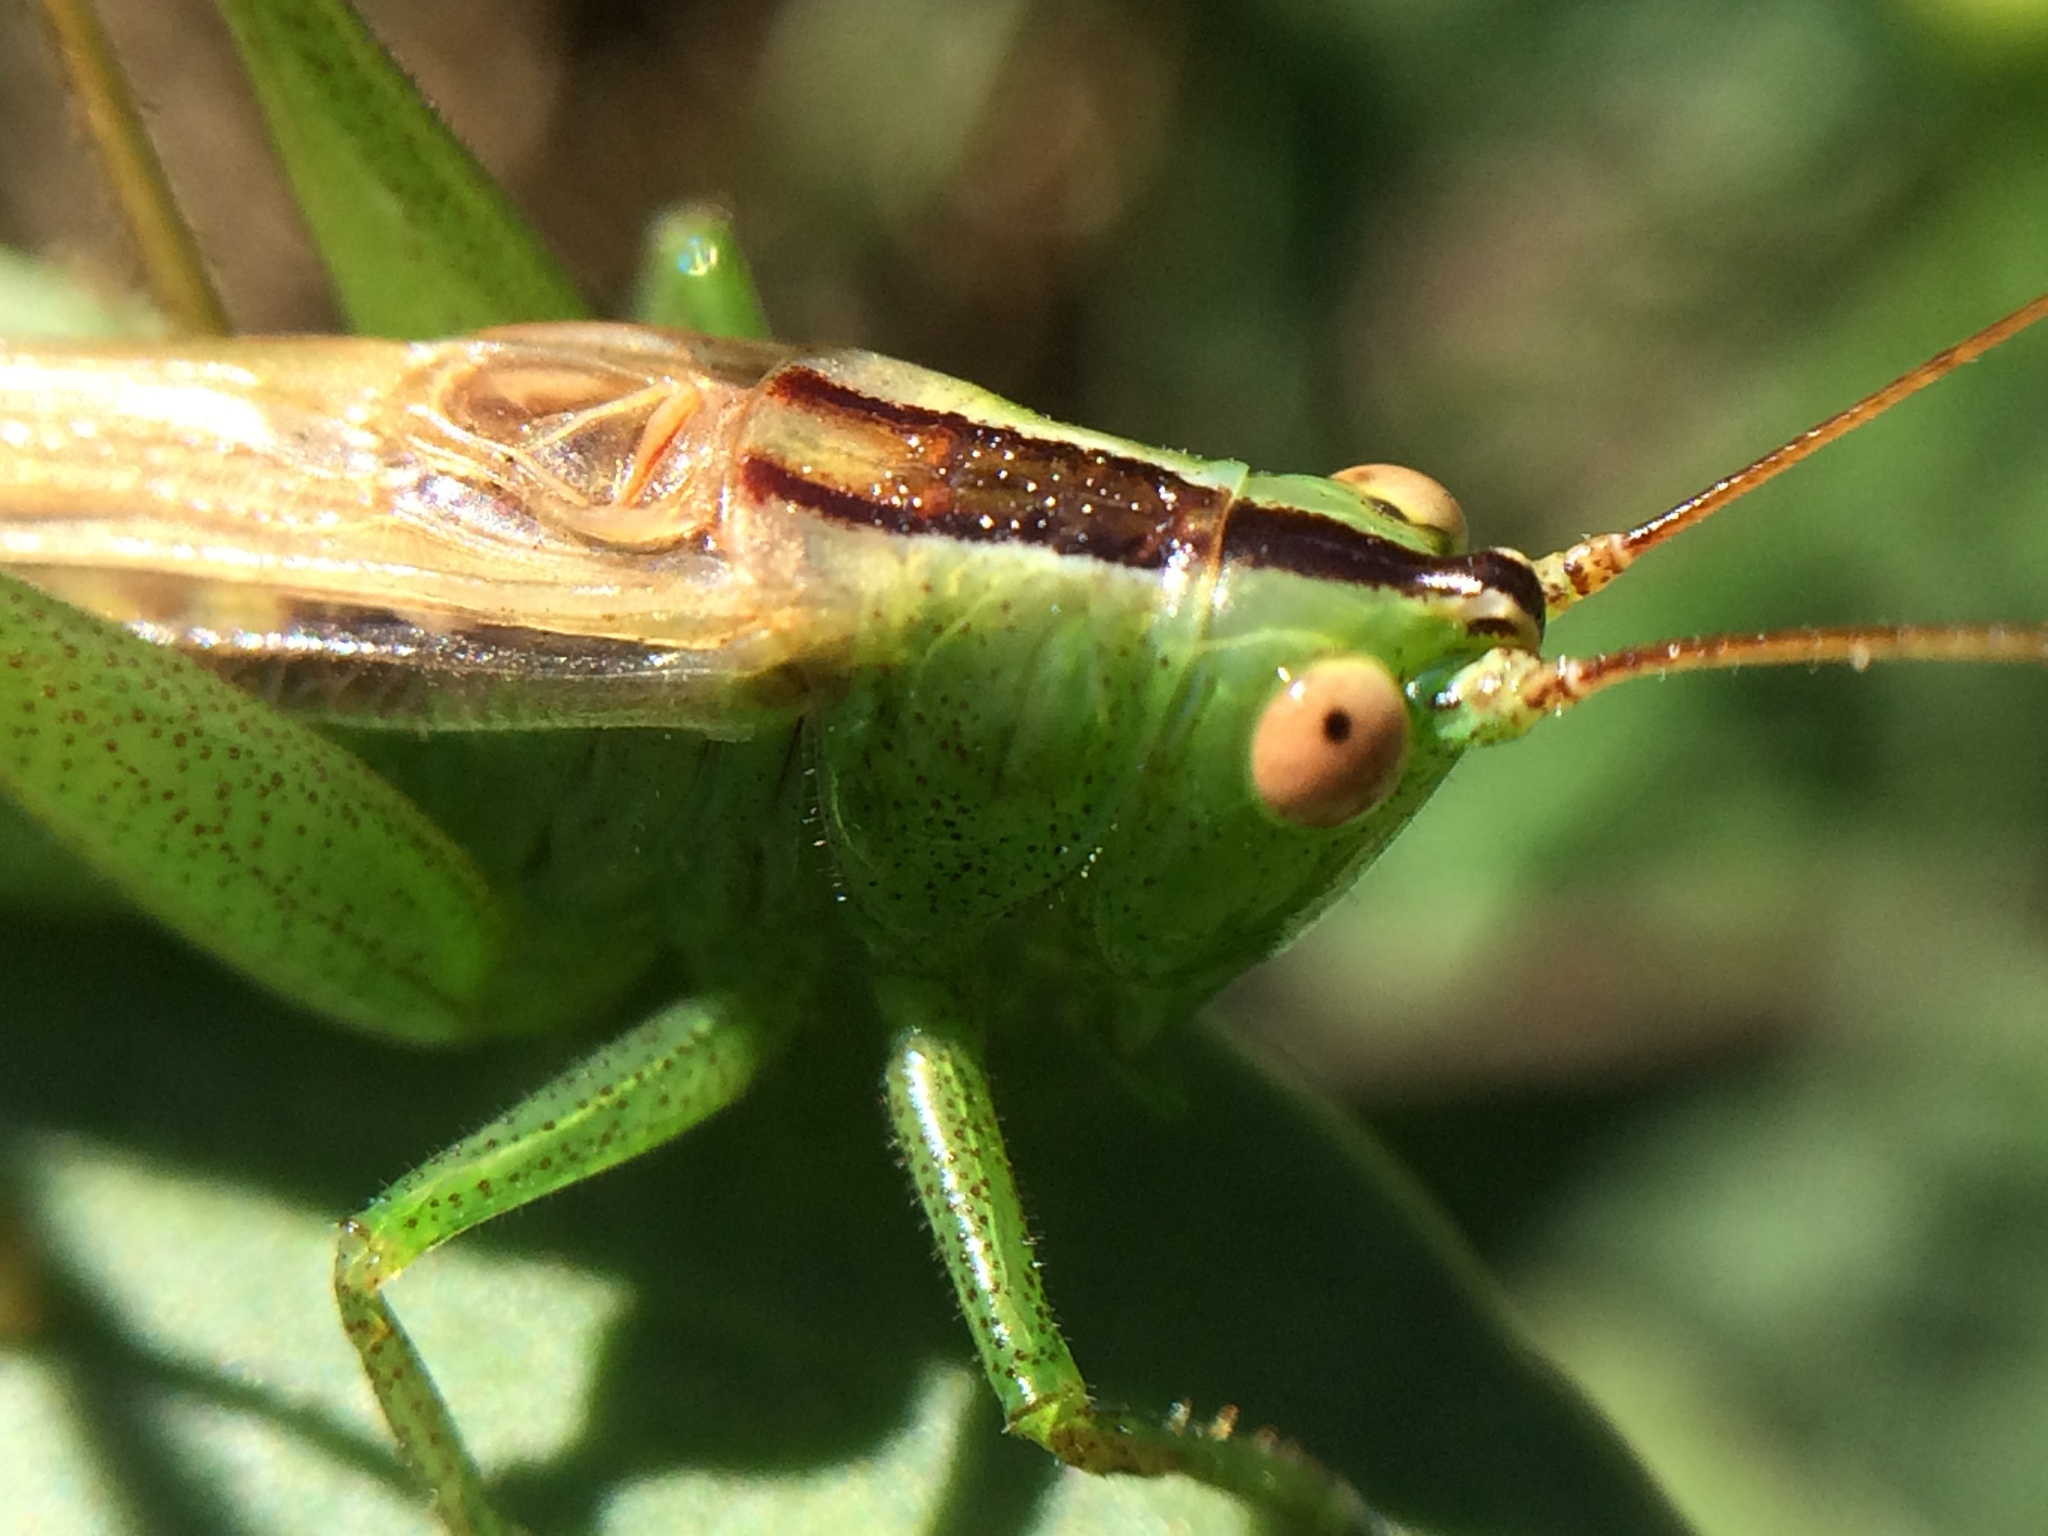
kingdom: Animalia
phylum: Arthropoda
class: Insecta
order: Orthoptera
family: Tettigoniidae
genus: Conocephalus
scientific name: Conocephalus fasciatus
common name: Slender meadow katydid
